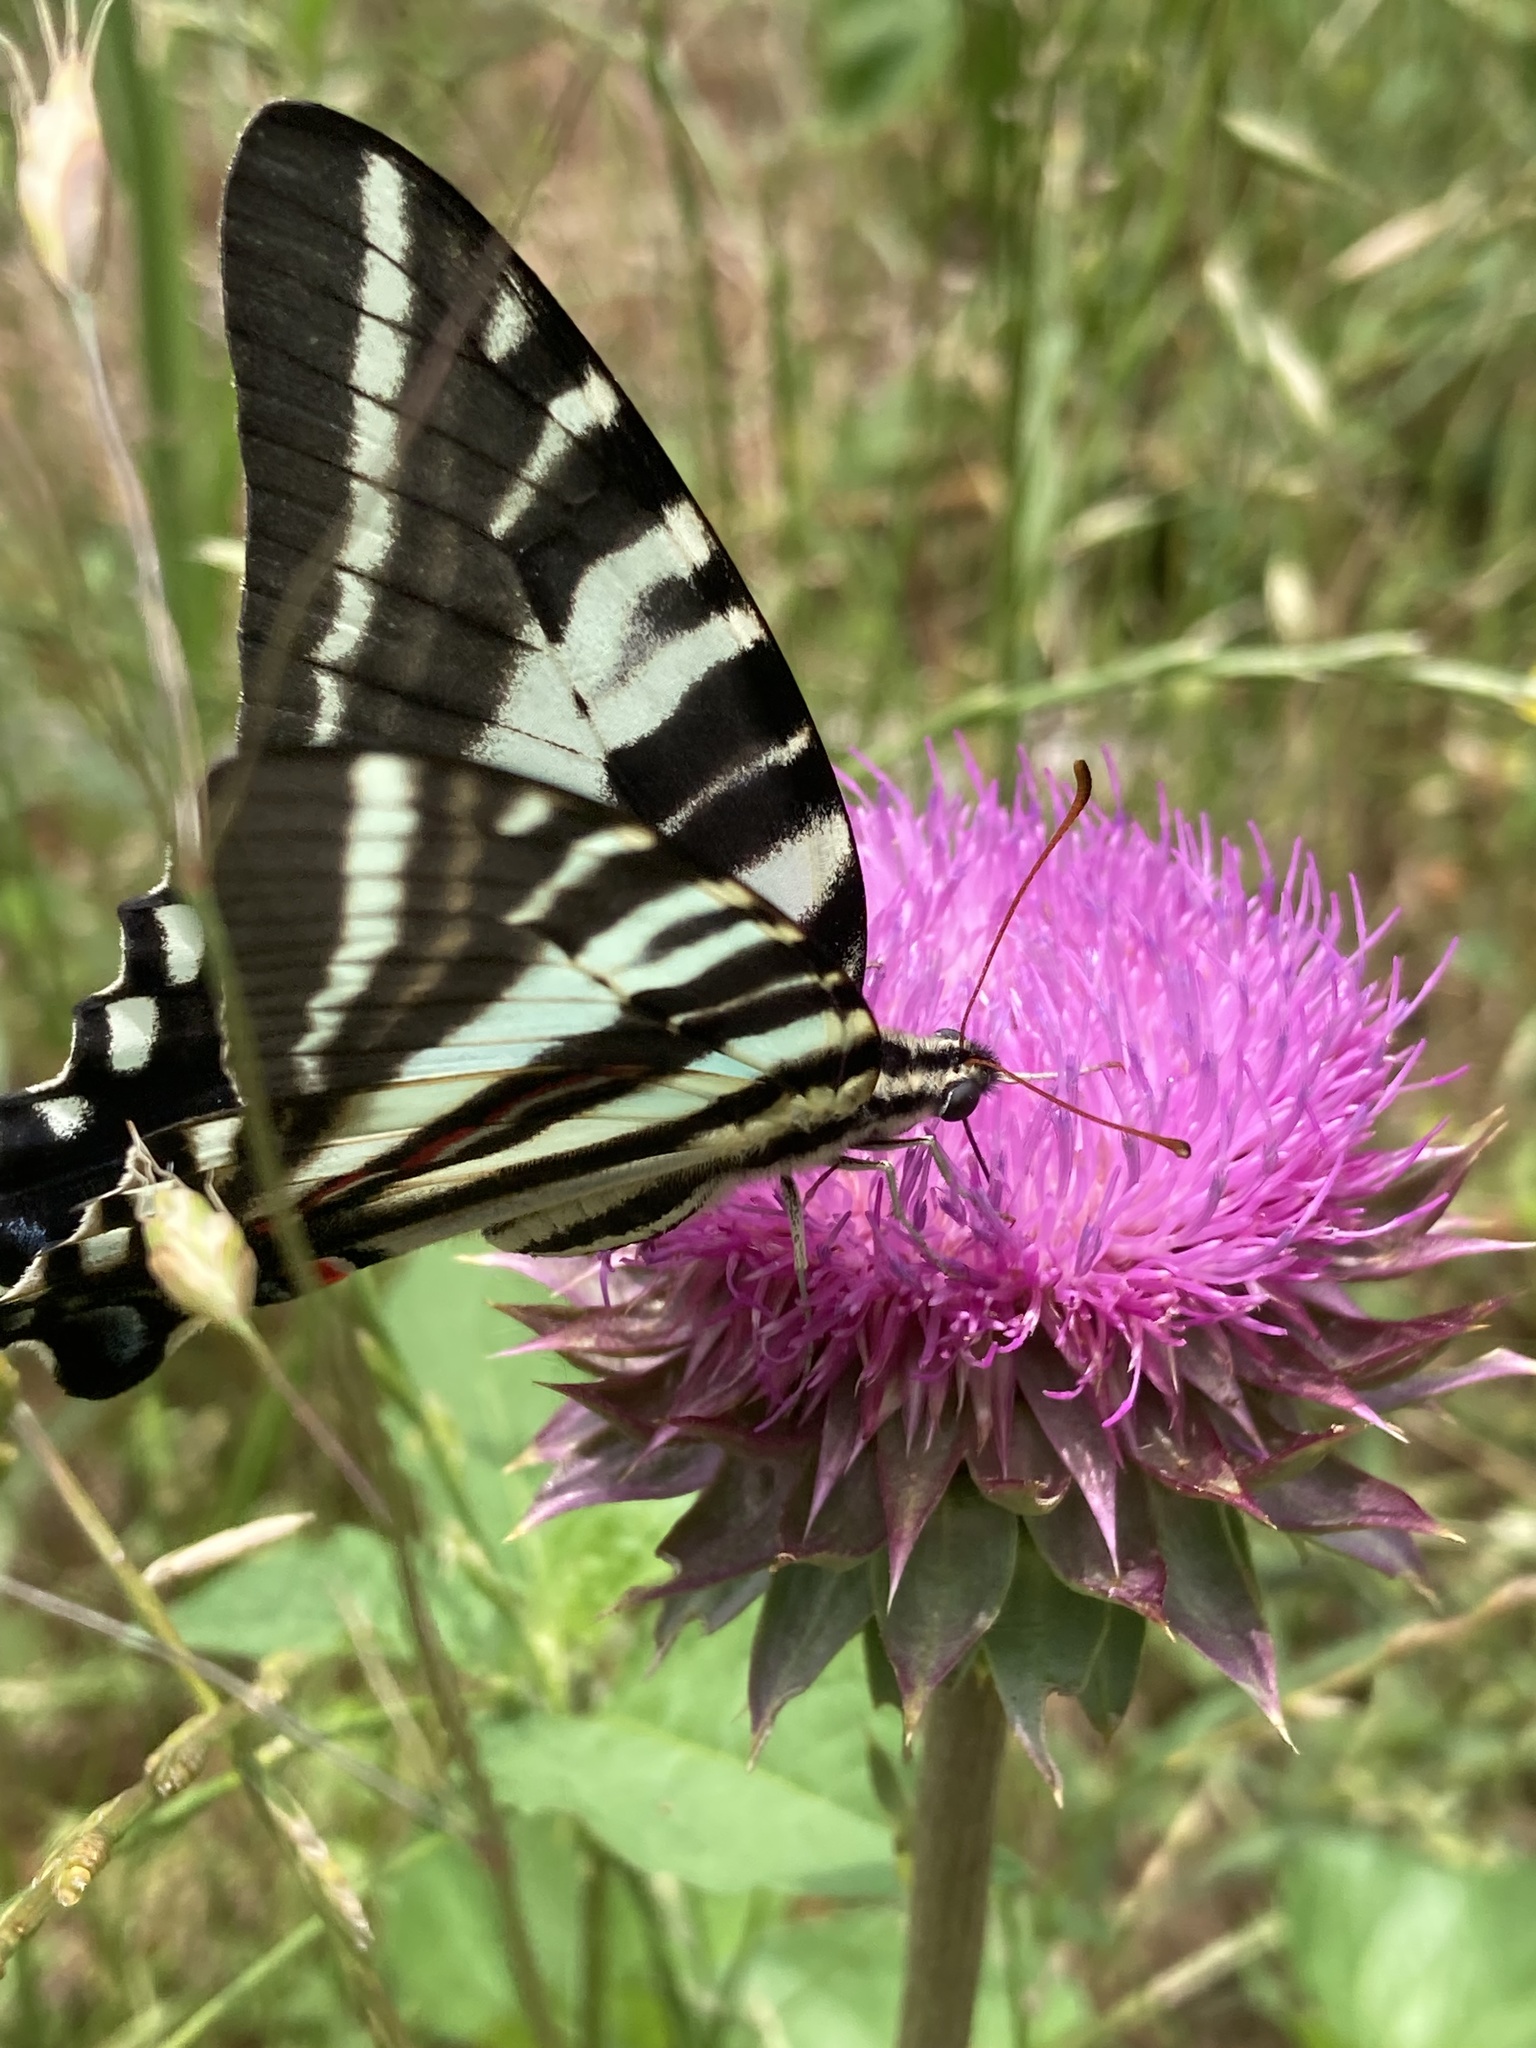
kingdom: Animalia
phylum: Arthropoda
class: Insecta
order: Lepidoptera
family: Papilionidae
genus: Protographium
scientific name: Protographium marcellus
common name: Zebra swallowtail
